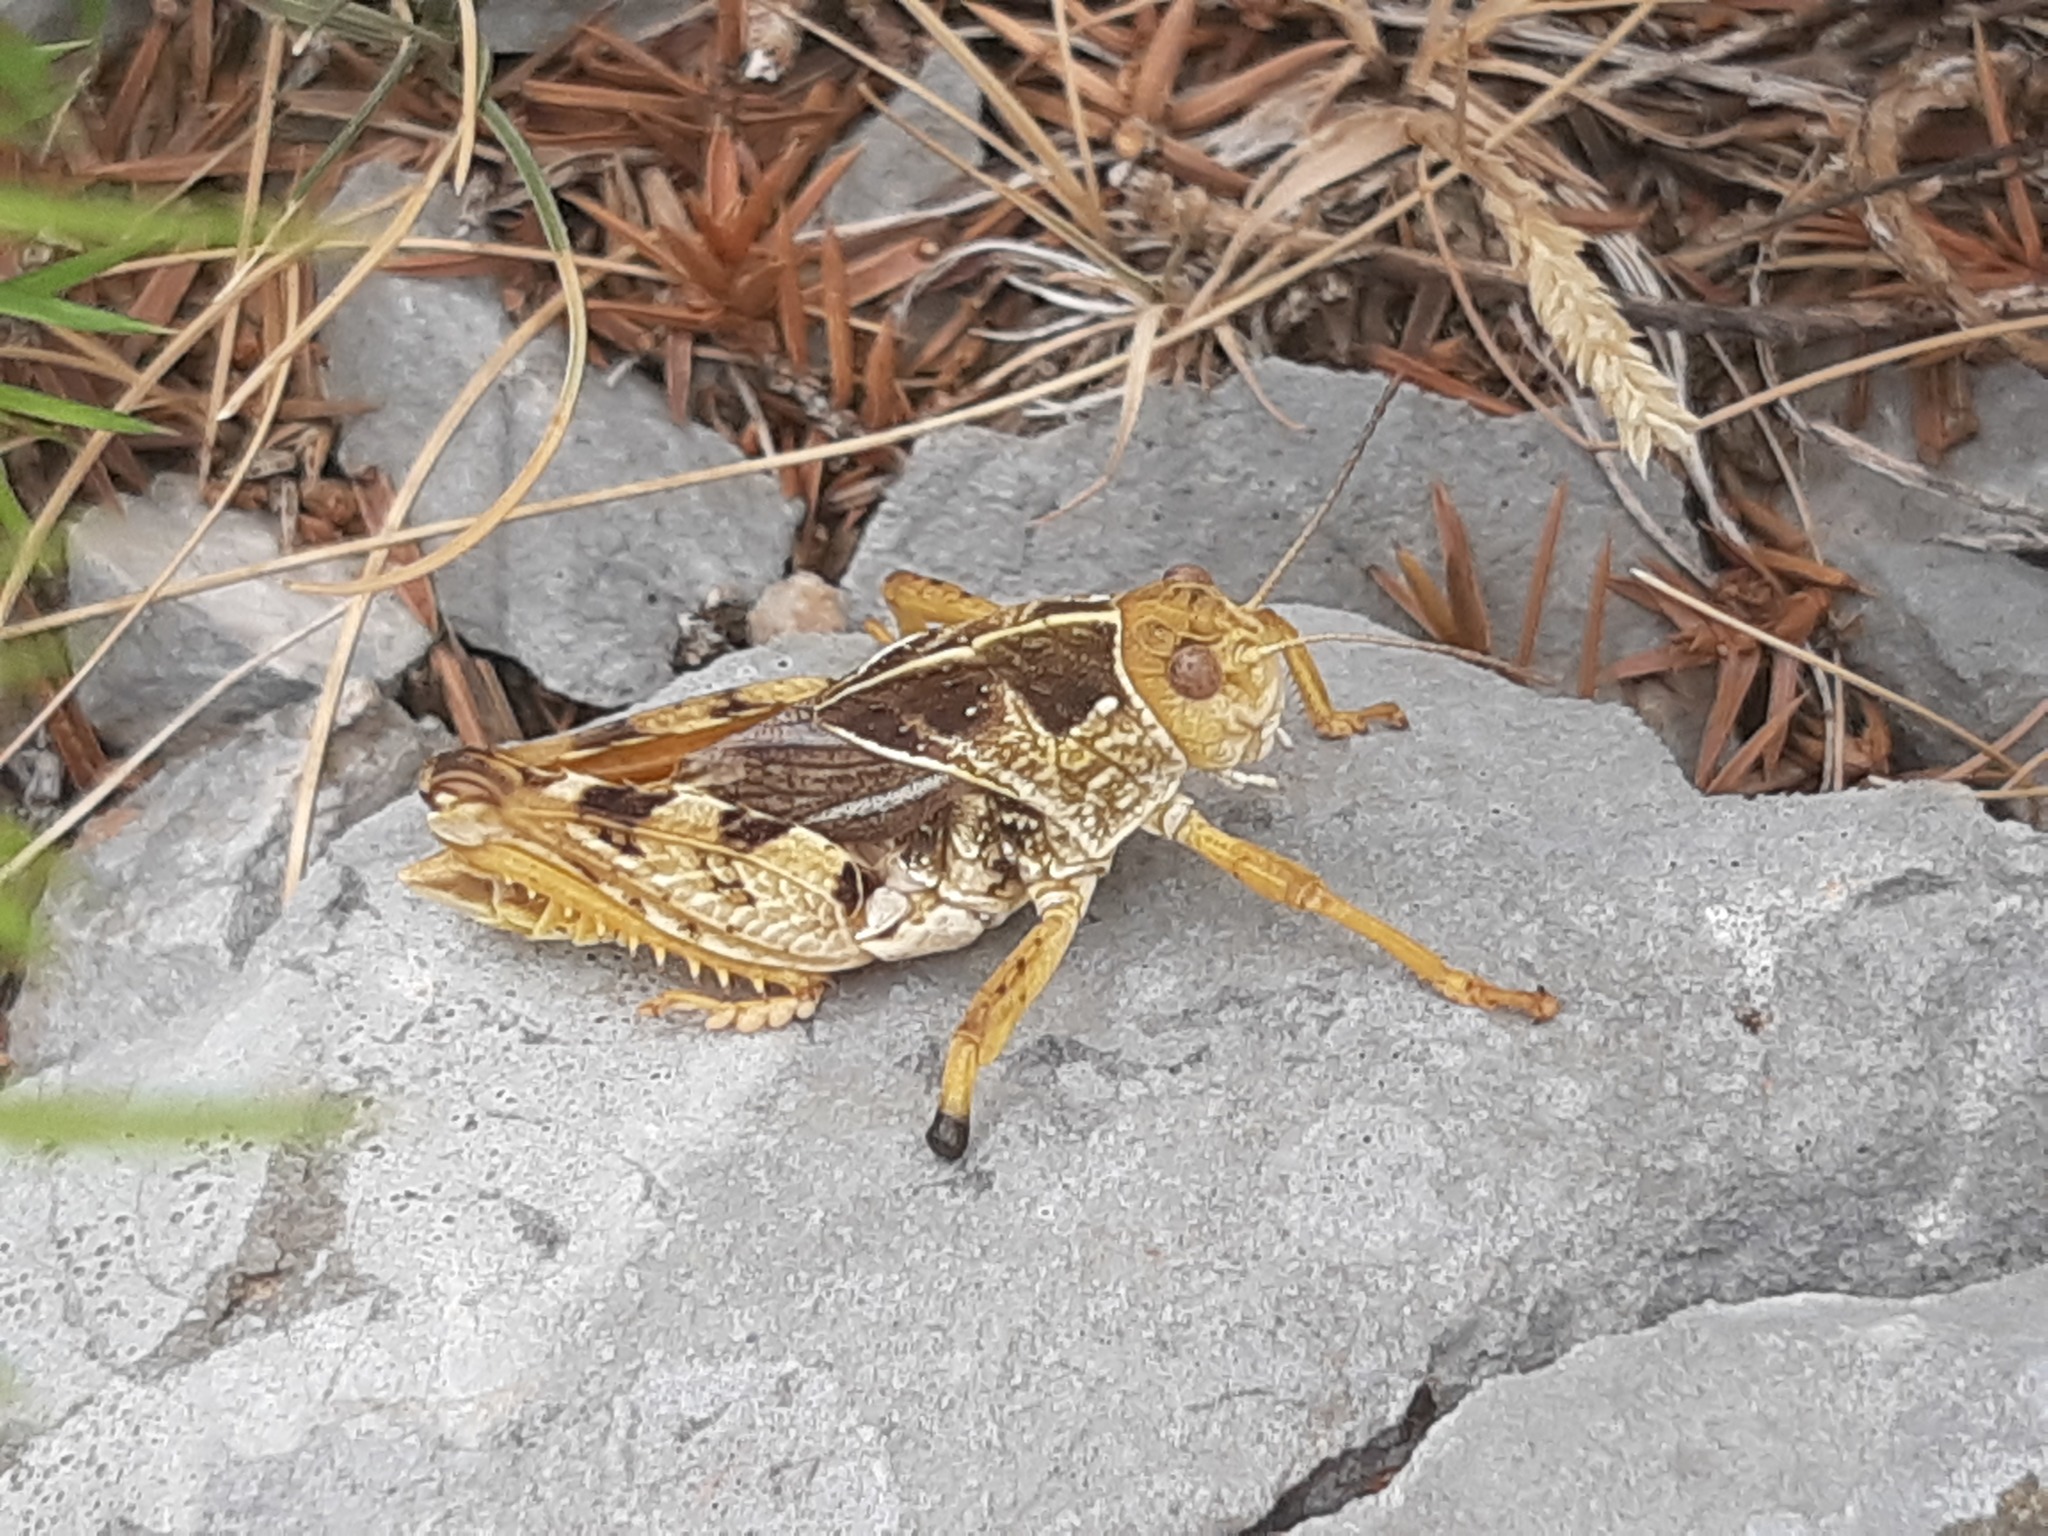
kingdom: Animalia
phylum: Arthropoda
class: Insecta
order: Orthoptera
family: Pamphagidae
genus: Prionotropis
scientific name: Prionotropis hystrix
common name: Eastern stone grasshopper
